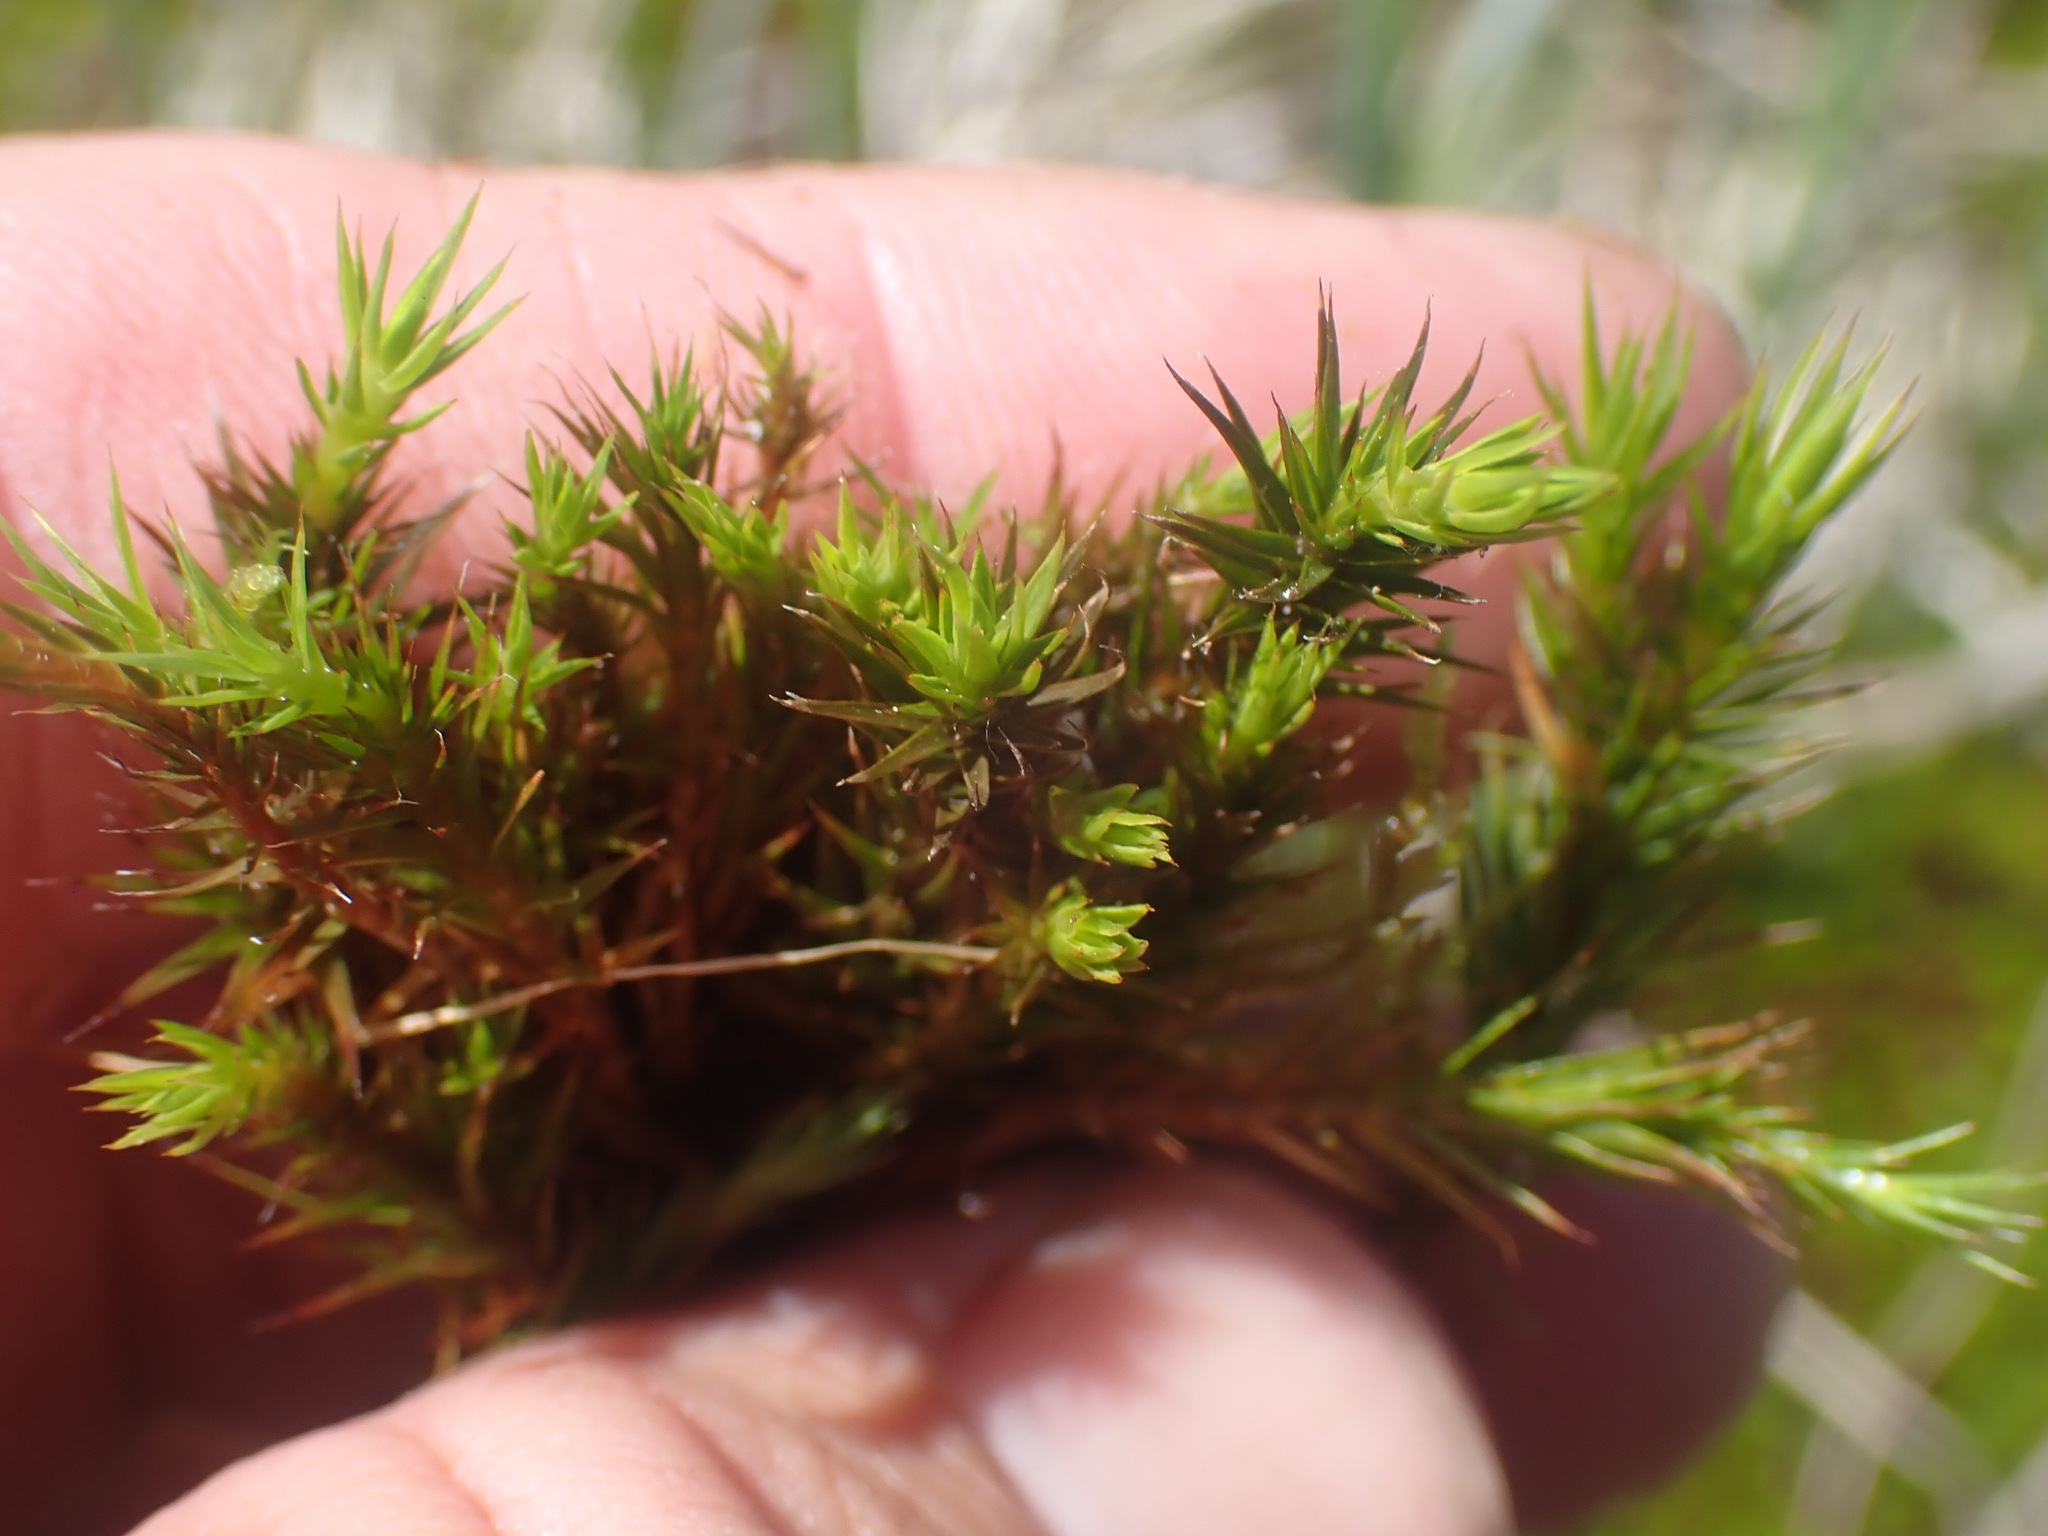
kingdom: Plantae
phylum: Bryophyta
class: Polytrichopsida
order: Polytrichales
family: Polytrichaceae
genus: Polytrichastrum
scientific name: Polytrichastrum sexangulare
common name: Northern haircap
